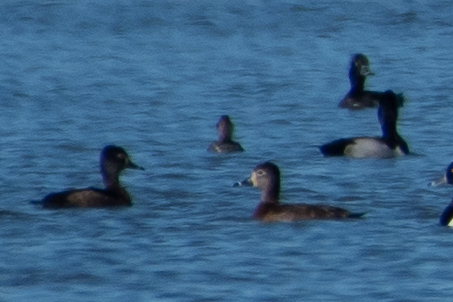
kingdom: Animalia
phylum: Chordata
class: Aves
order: Anseriformes
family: Anatidae
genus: Aythya
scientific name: Aythya collaris
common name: Ring-necked duck
